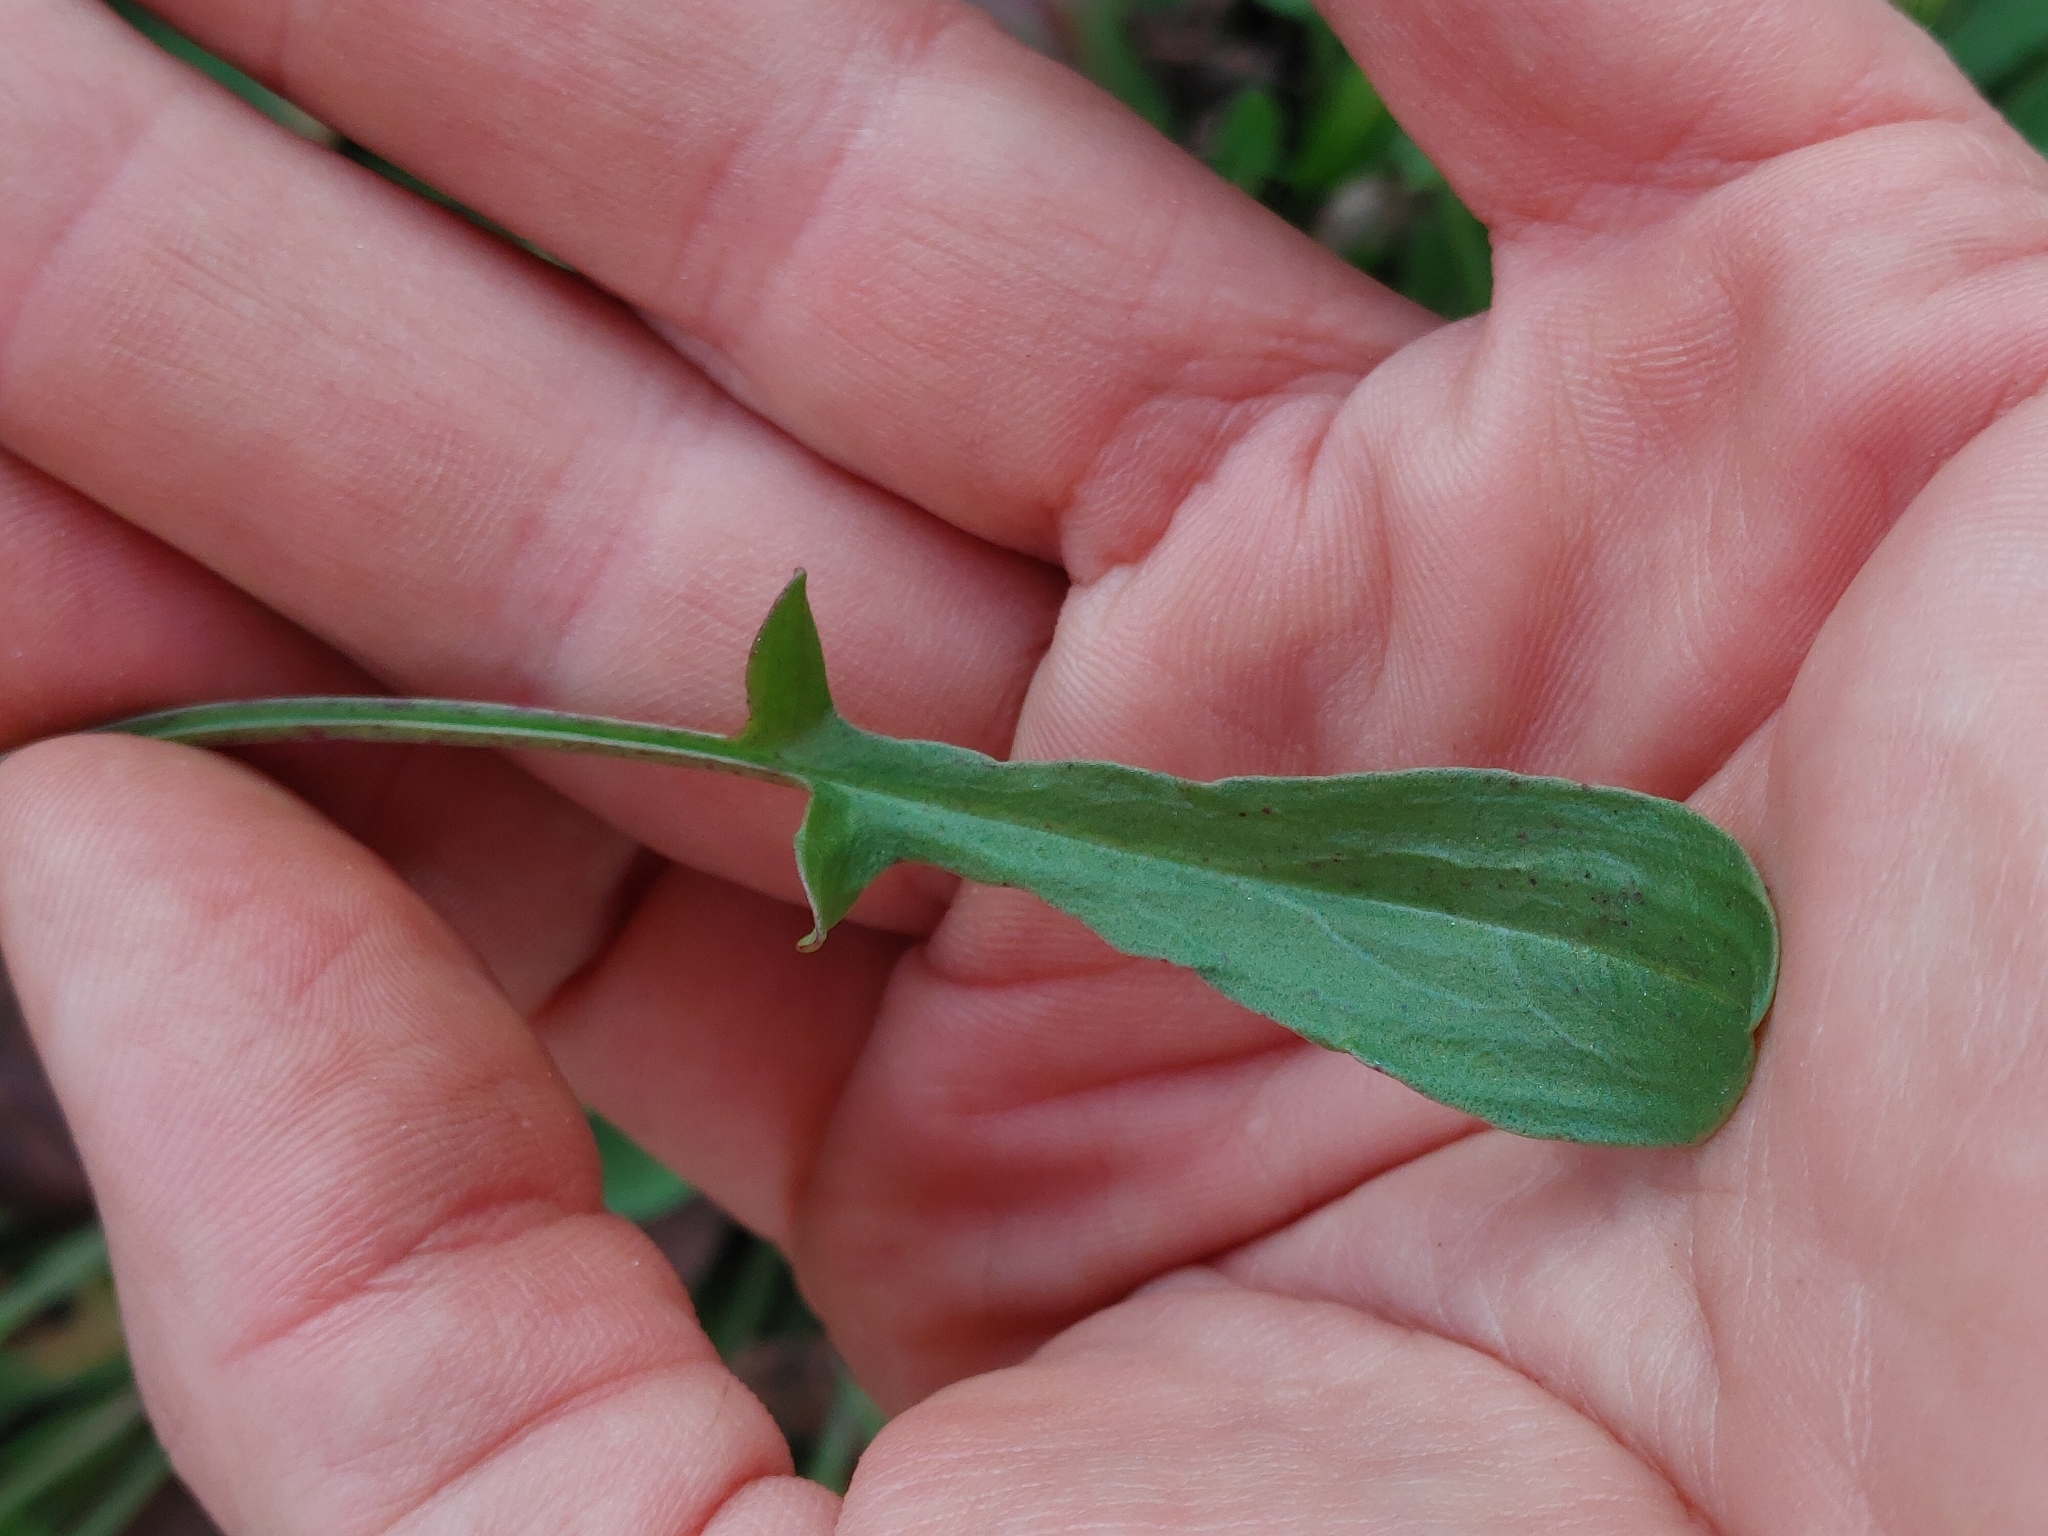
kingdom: Plantae
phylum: Tracheophyta
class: Magnoliopsida
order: Caryophyllales
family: Polygonaceae
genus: Rumex
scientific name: Rumex hastatulus
